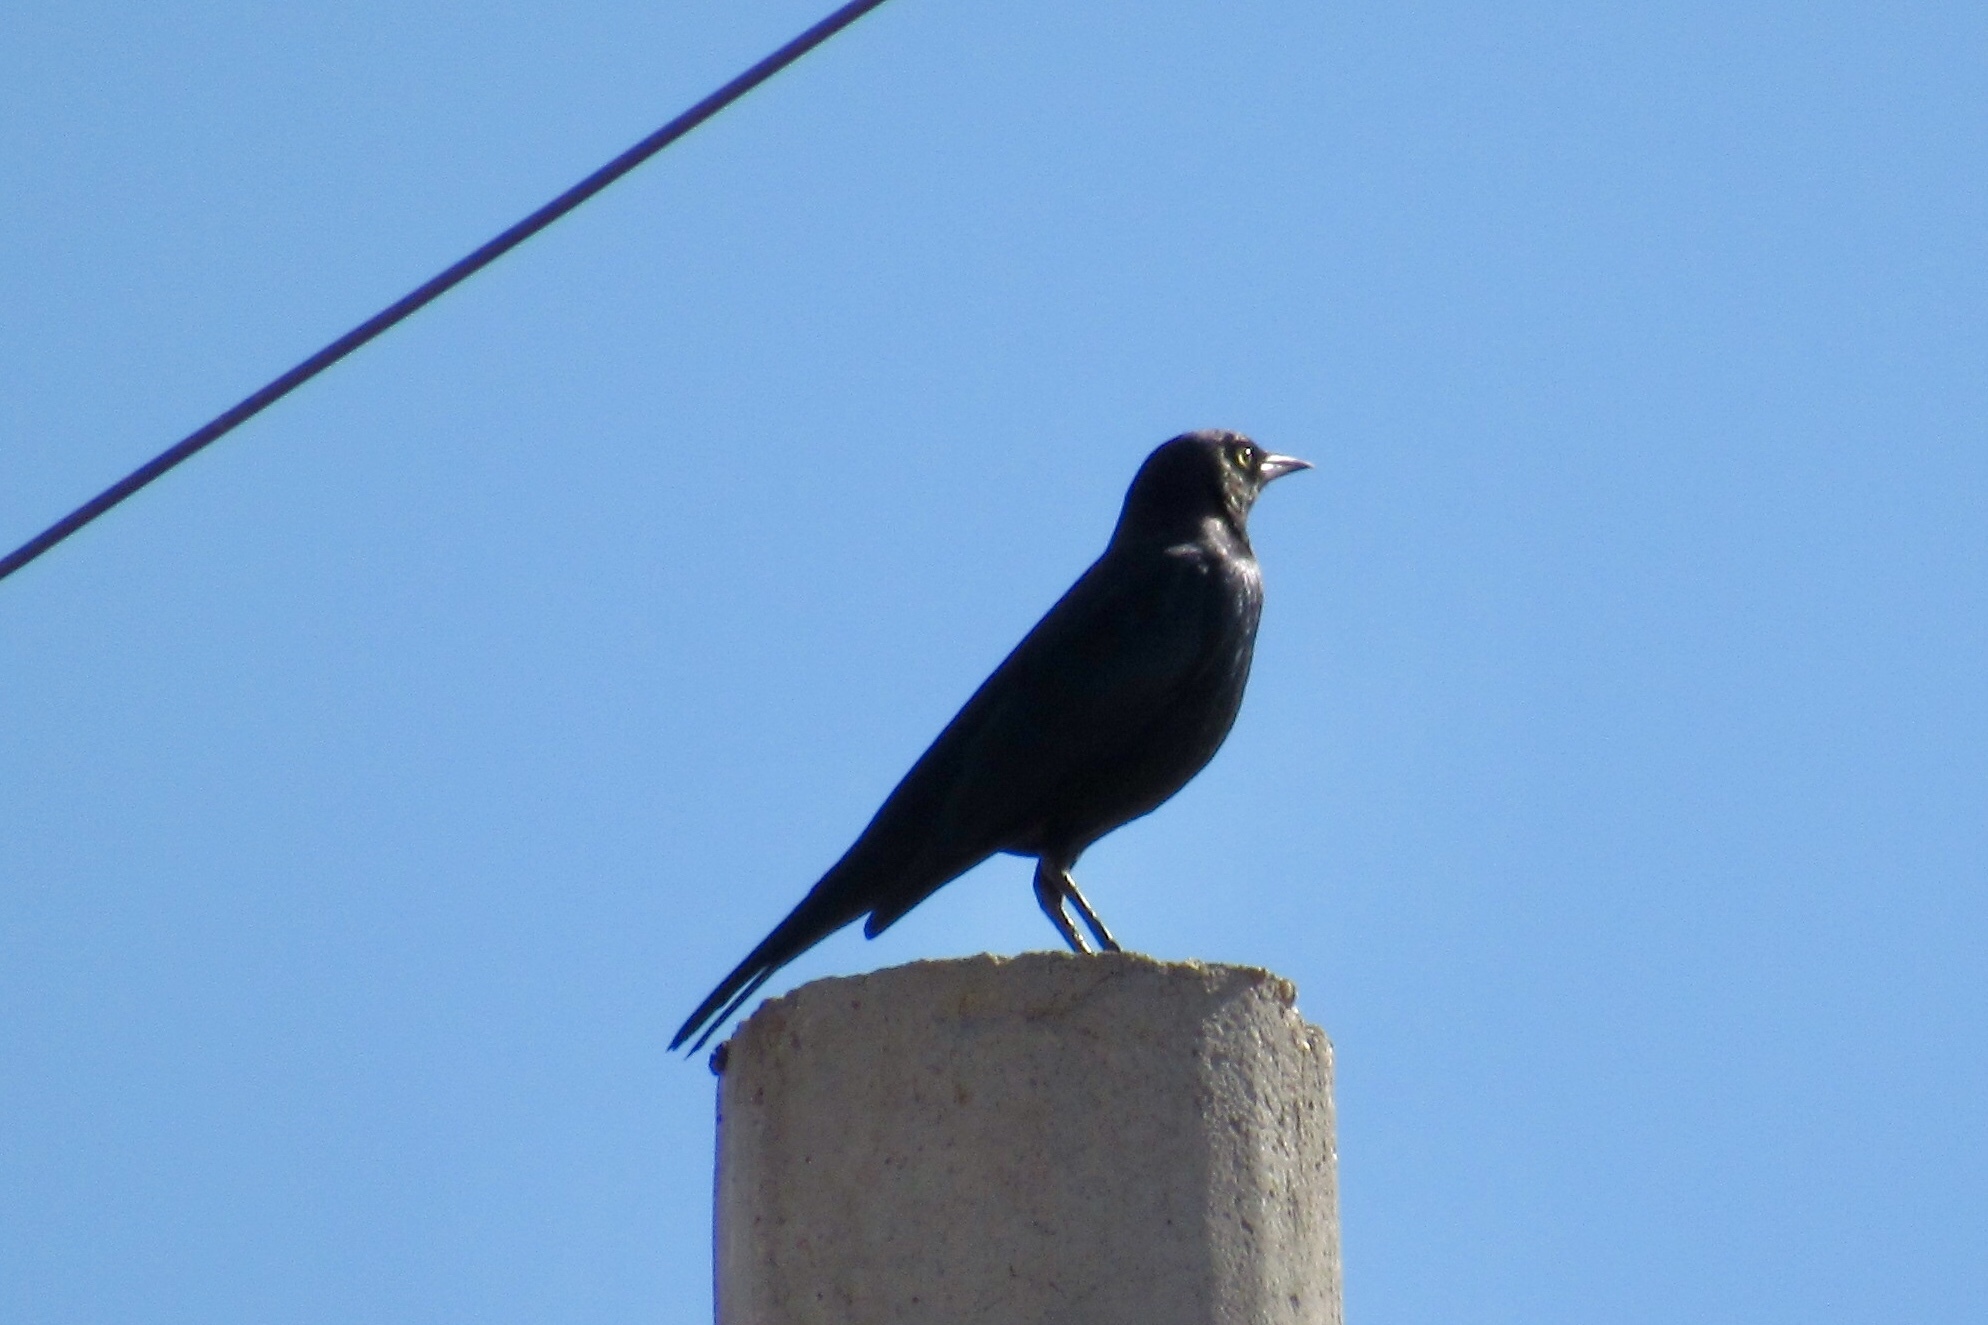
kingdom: Animalia
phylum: Chordata
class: Aves
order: Passeriformes
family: Icteridae
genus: Euphagus
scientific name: Euphagus cyanocephalus
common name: Brewer's blackbird
